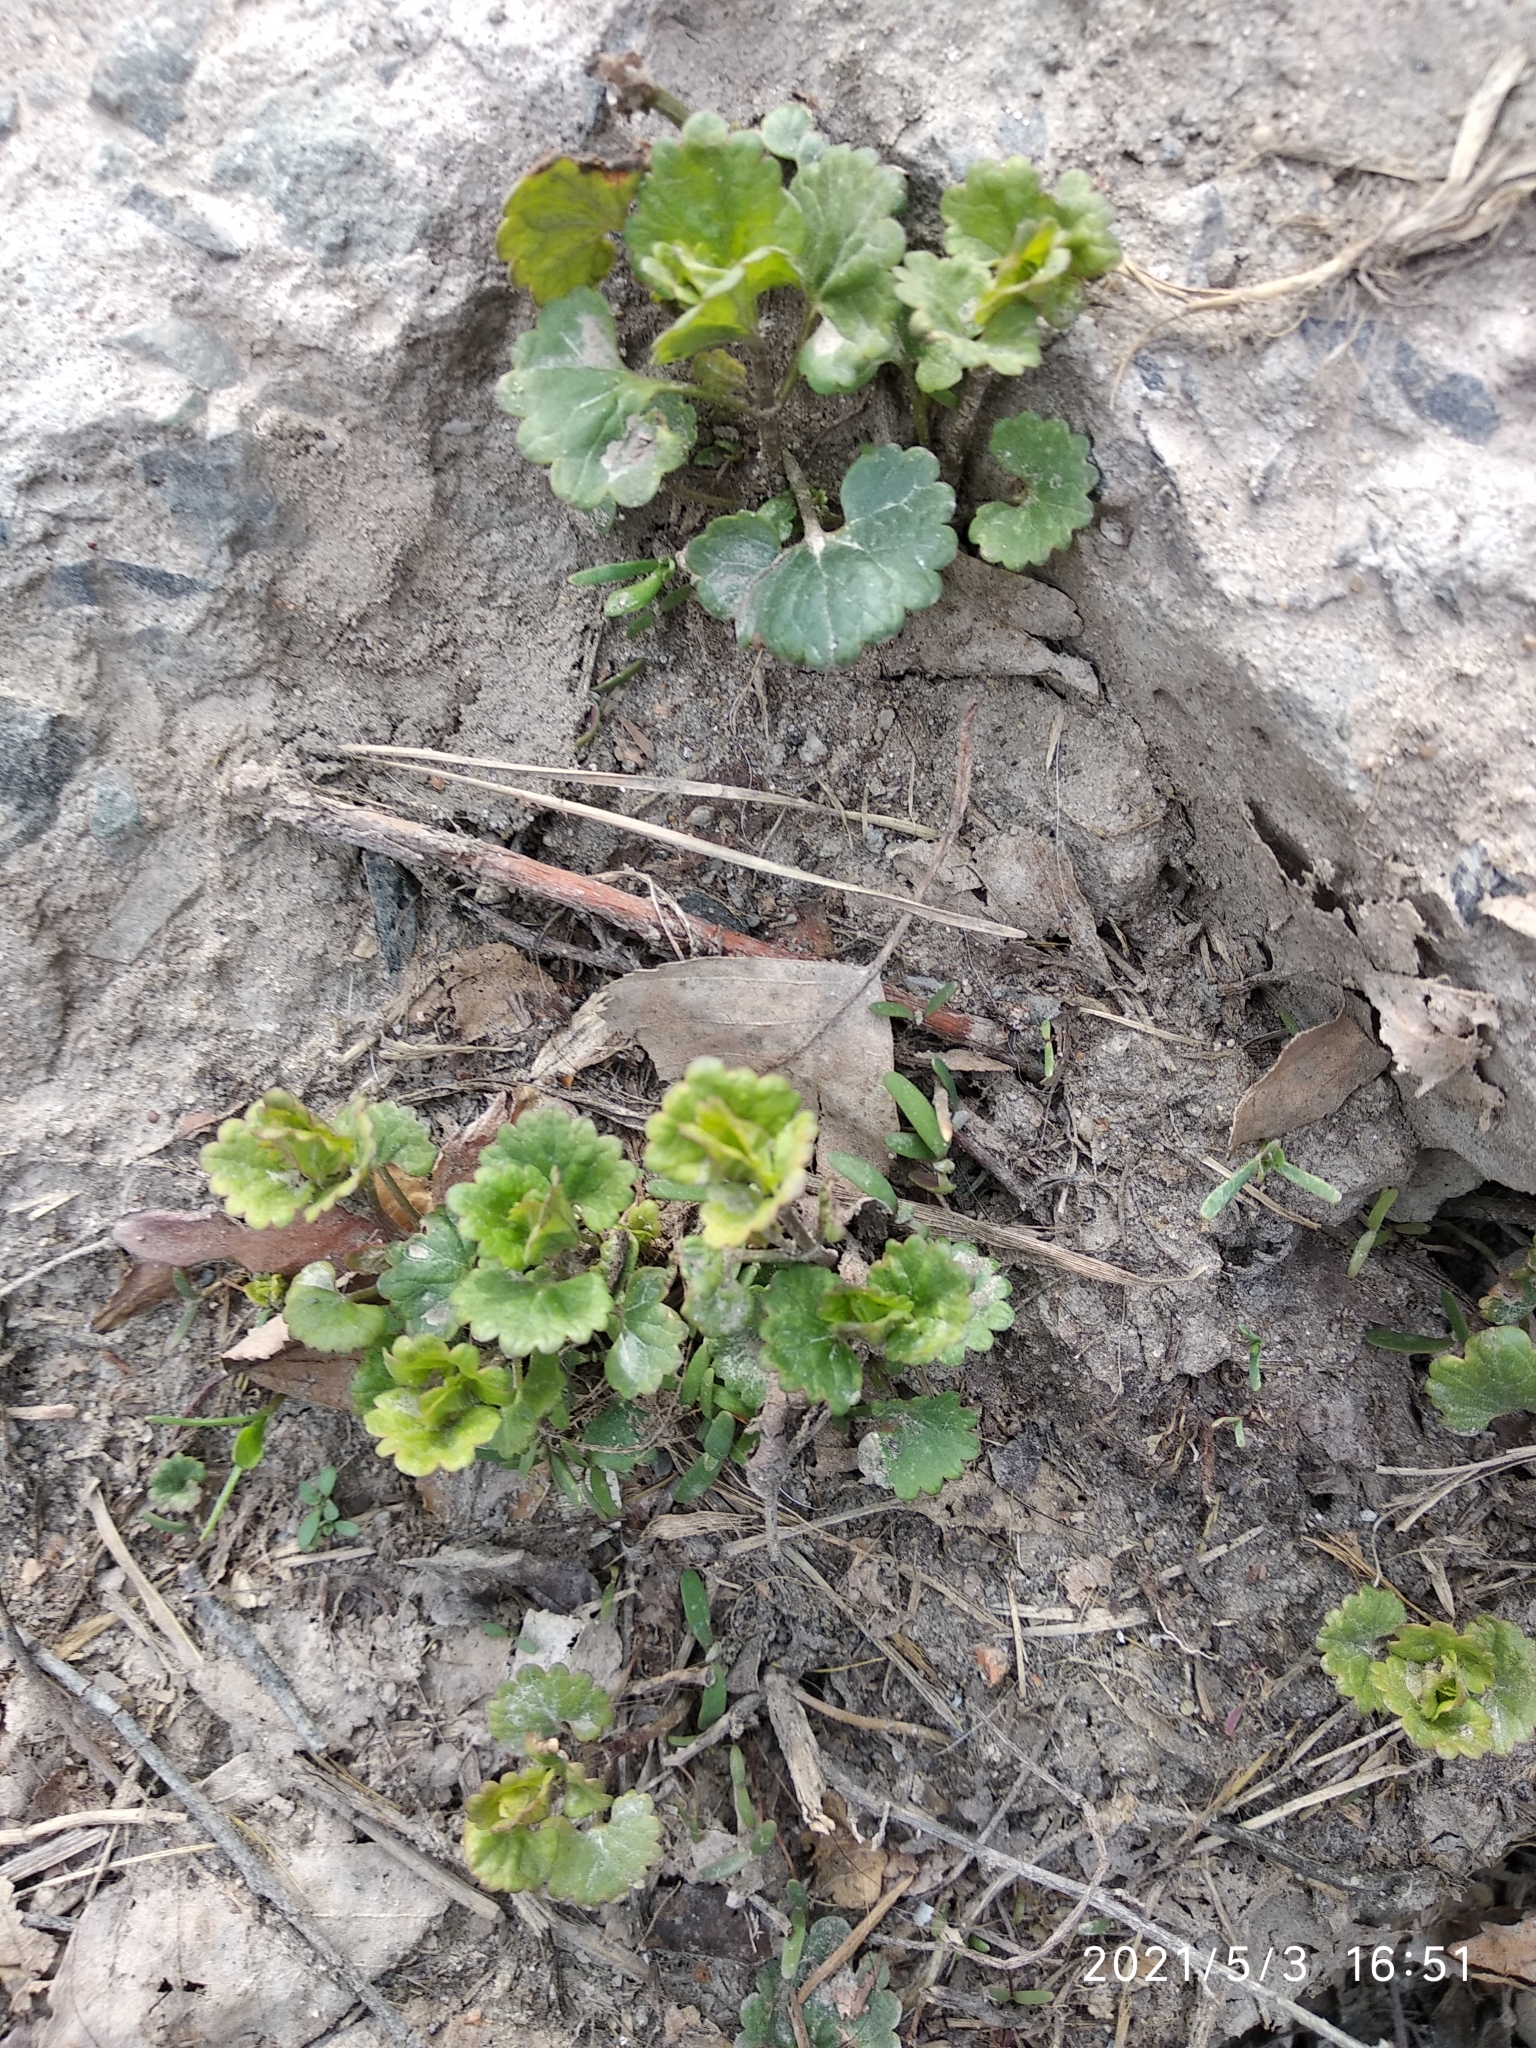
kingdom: Plantae
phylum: Tracheophyta
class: Magnoliopsida
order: Lamiales
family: Lamiaceae
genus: Glechoma
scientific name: Glechoma hederacea
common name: Ground ivy
